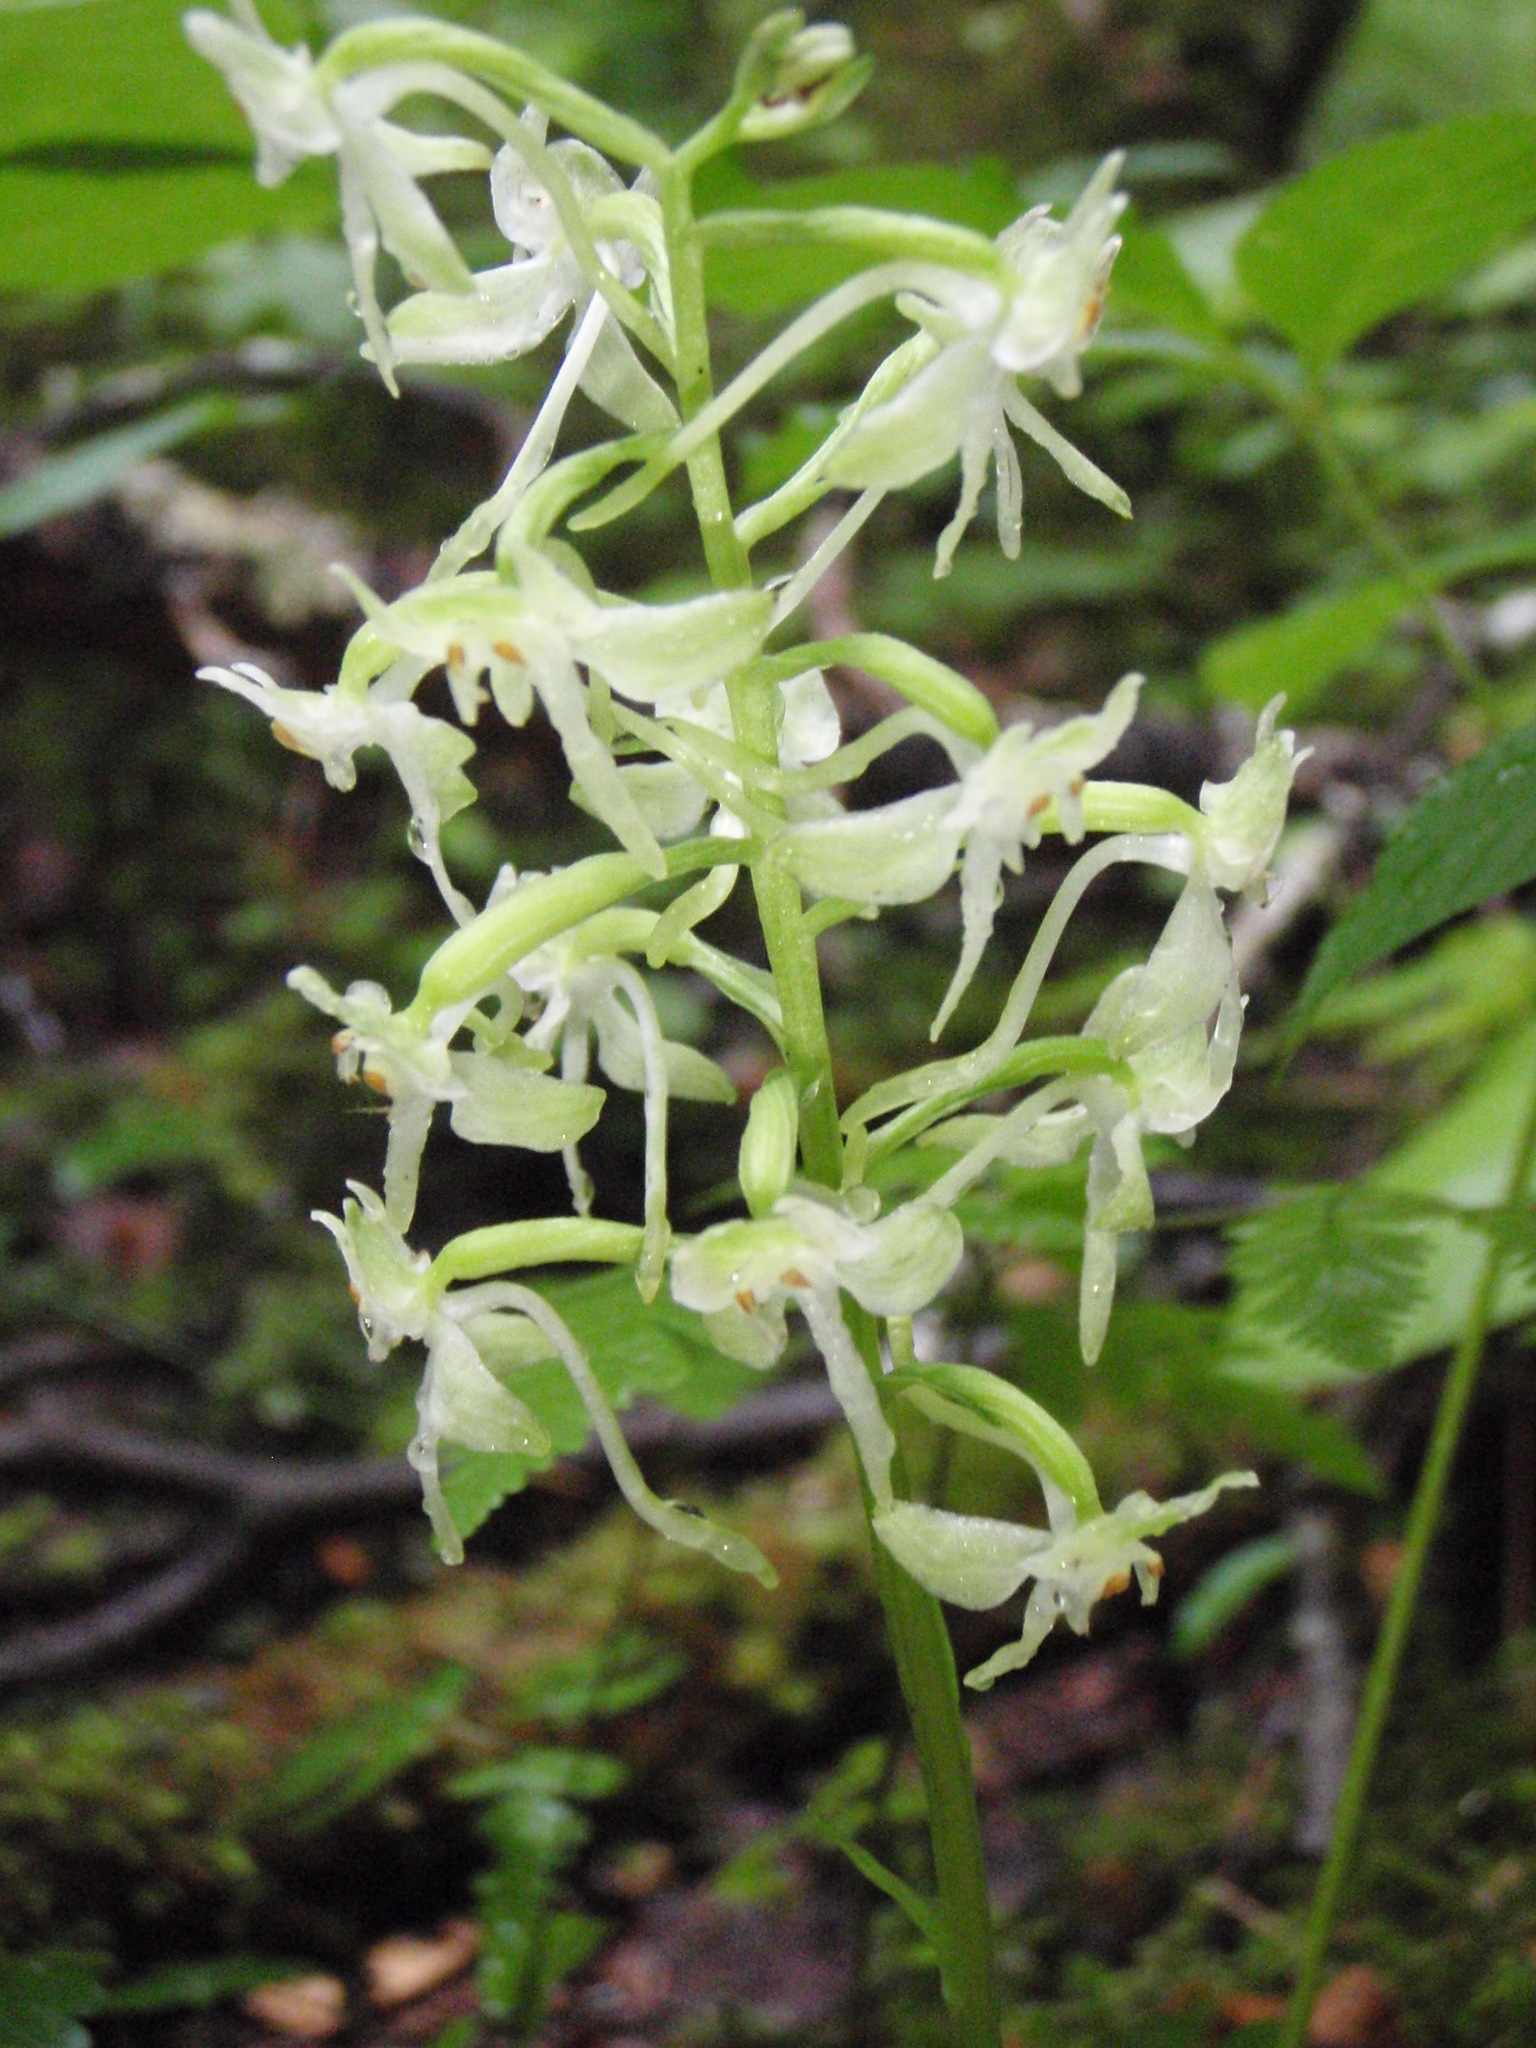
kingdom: Plantae
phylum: Tracheophyta
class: Liliopsida
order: Asparagales
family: Orchidaceae
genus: Platanthera
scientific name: Platanthera orbiculata
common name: Large round-leaved orchid
